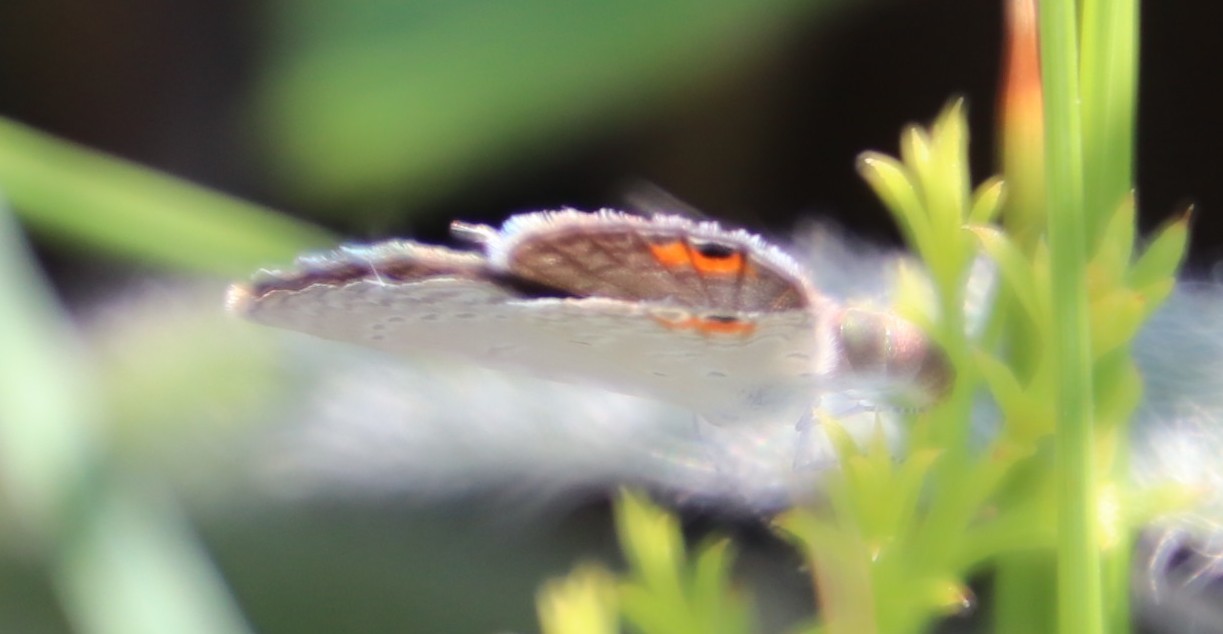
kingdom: Animalia
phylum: Arthropoda
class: Insecta
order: Lepidoptera
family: Lycaenidae
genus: Eicochrysops
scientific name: Eicochrysops messapus
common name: Cupreous blue
